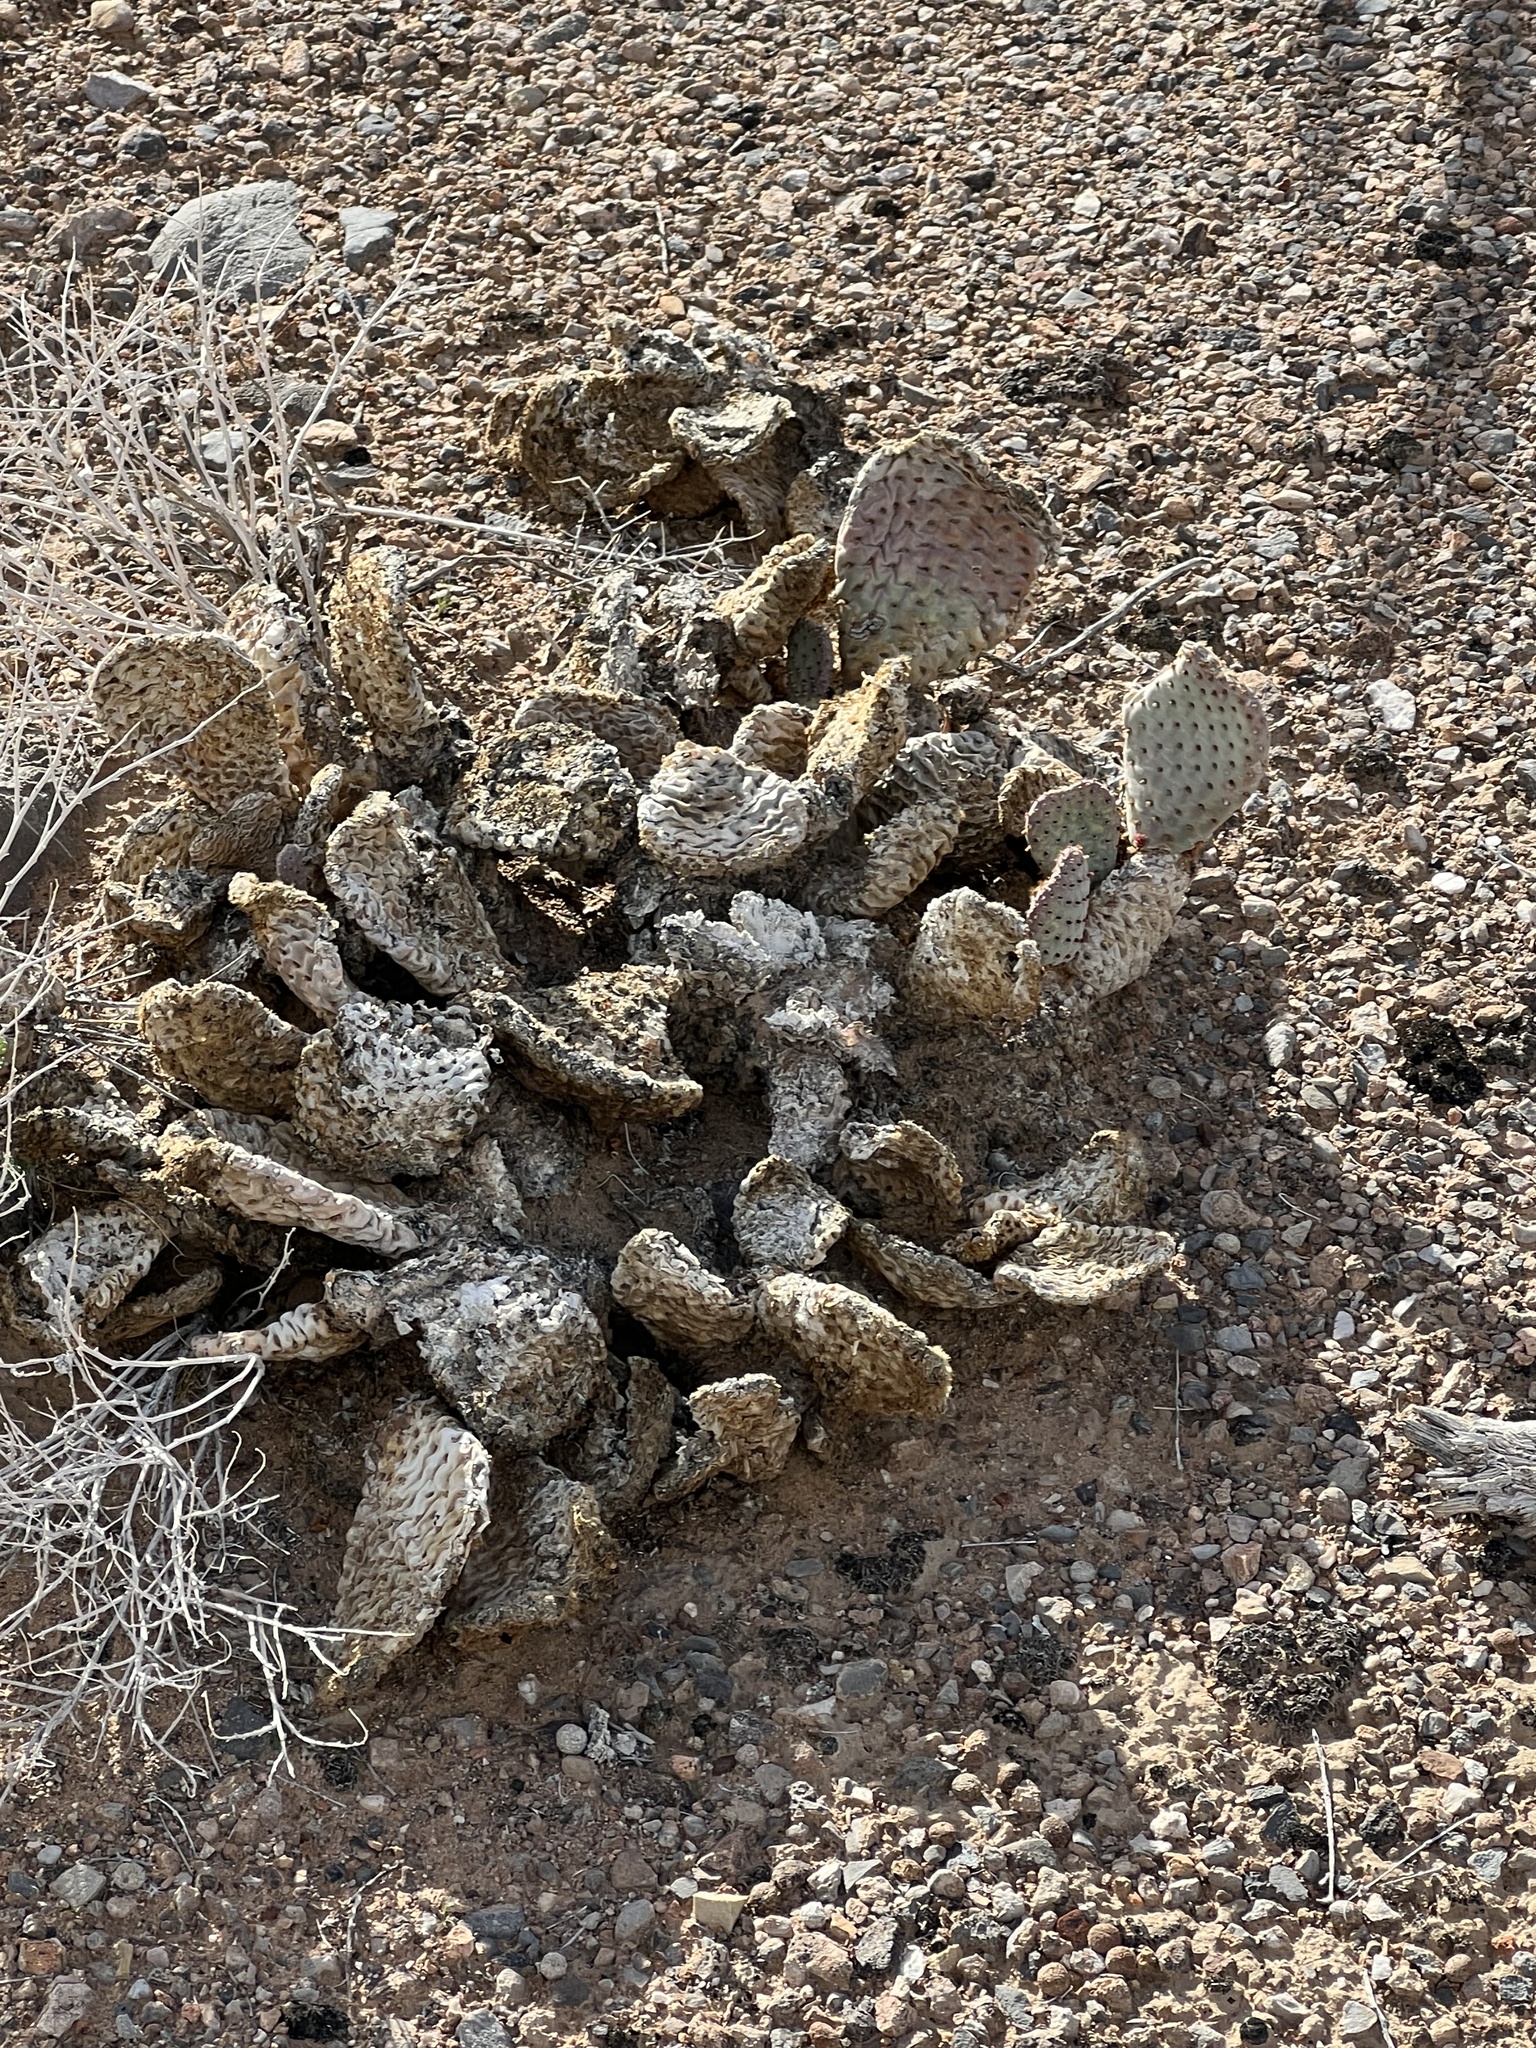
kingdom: Plantae
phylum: Tracheophyta
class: Magnoliopsida
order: Caryophyllales
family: Cactaceae
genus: Opuntia
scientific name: Opuntia basilaris
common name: Beavertail prickly-pear
